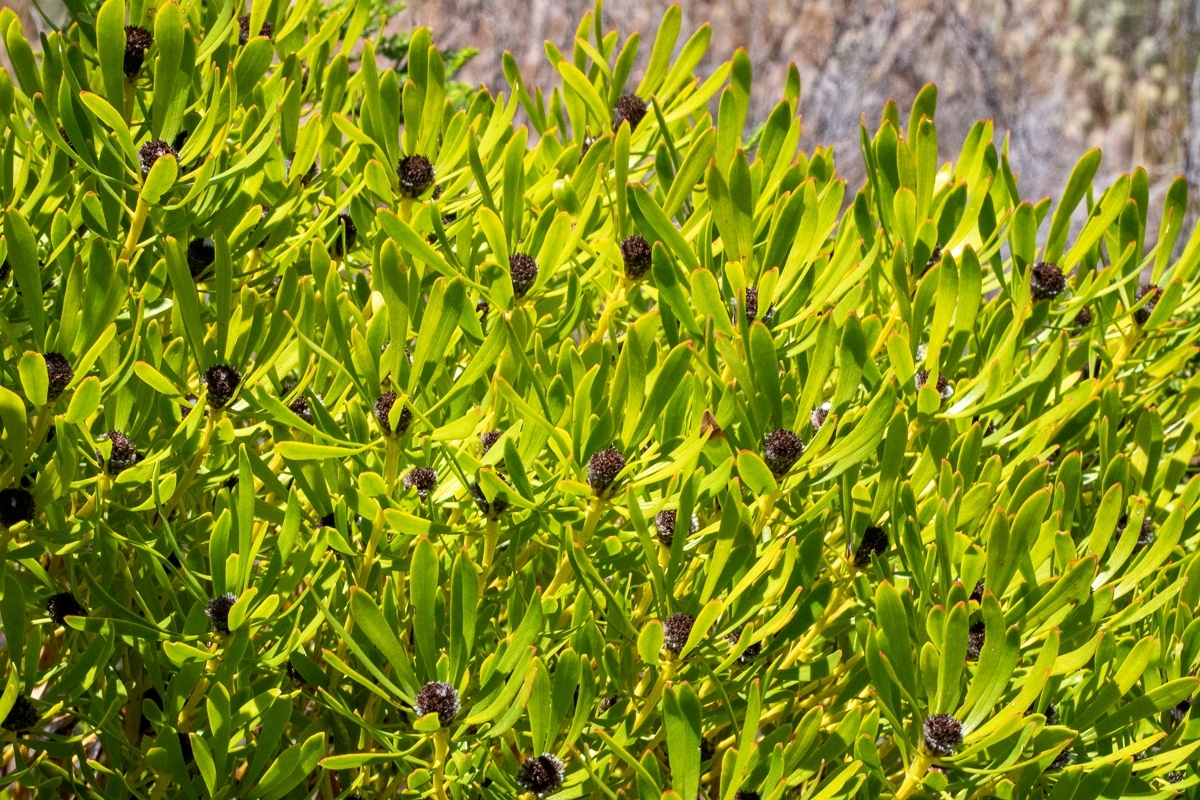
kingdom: Plantae
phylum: Tracheophyta
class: Magnoliopsida
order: Proteales
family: Proteaceae
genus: Leucadendron
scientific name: Leucadendron platyspermum
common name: Plate-seed conebush
